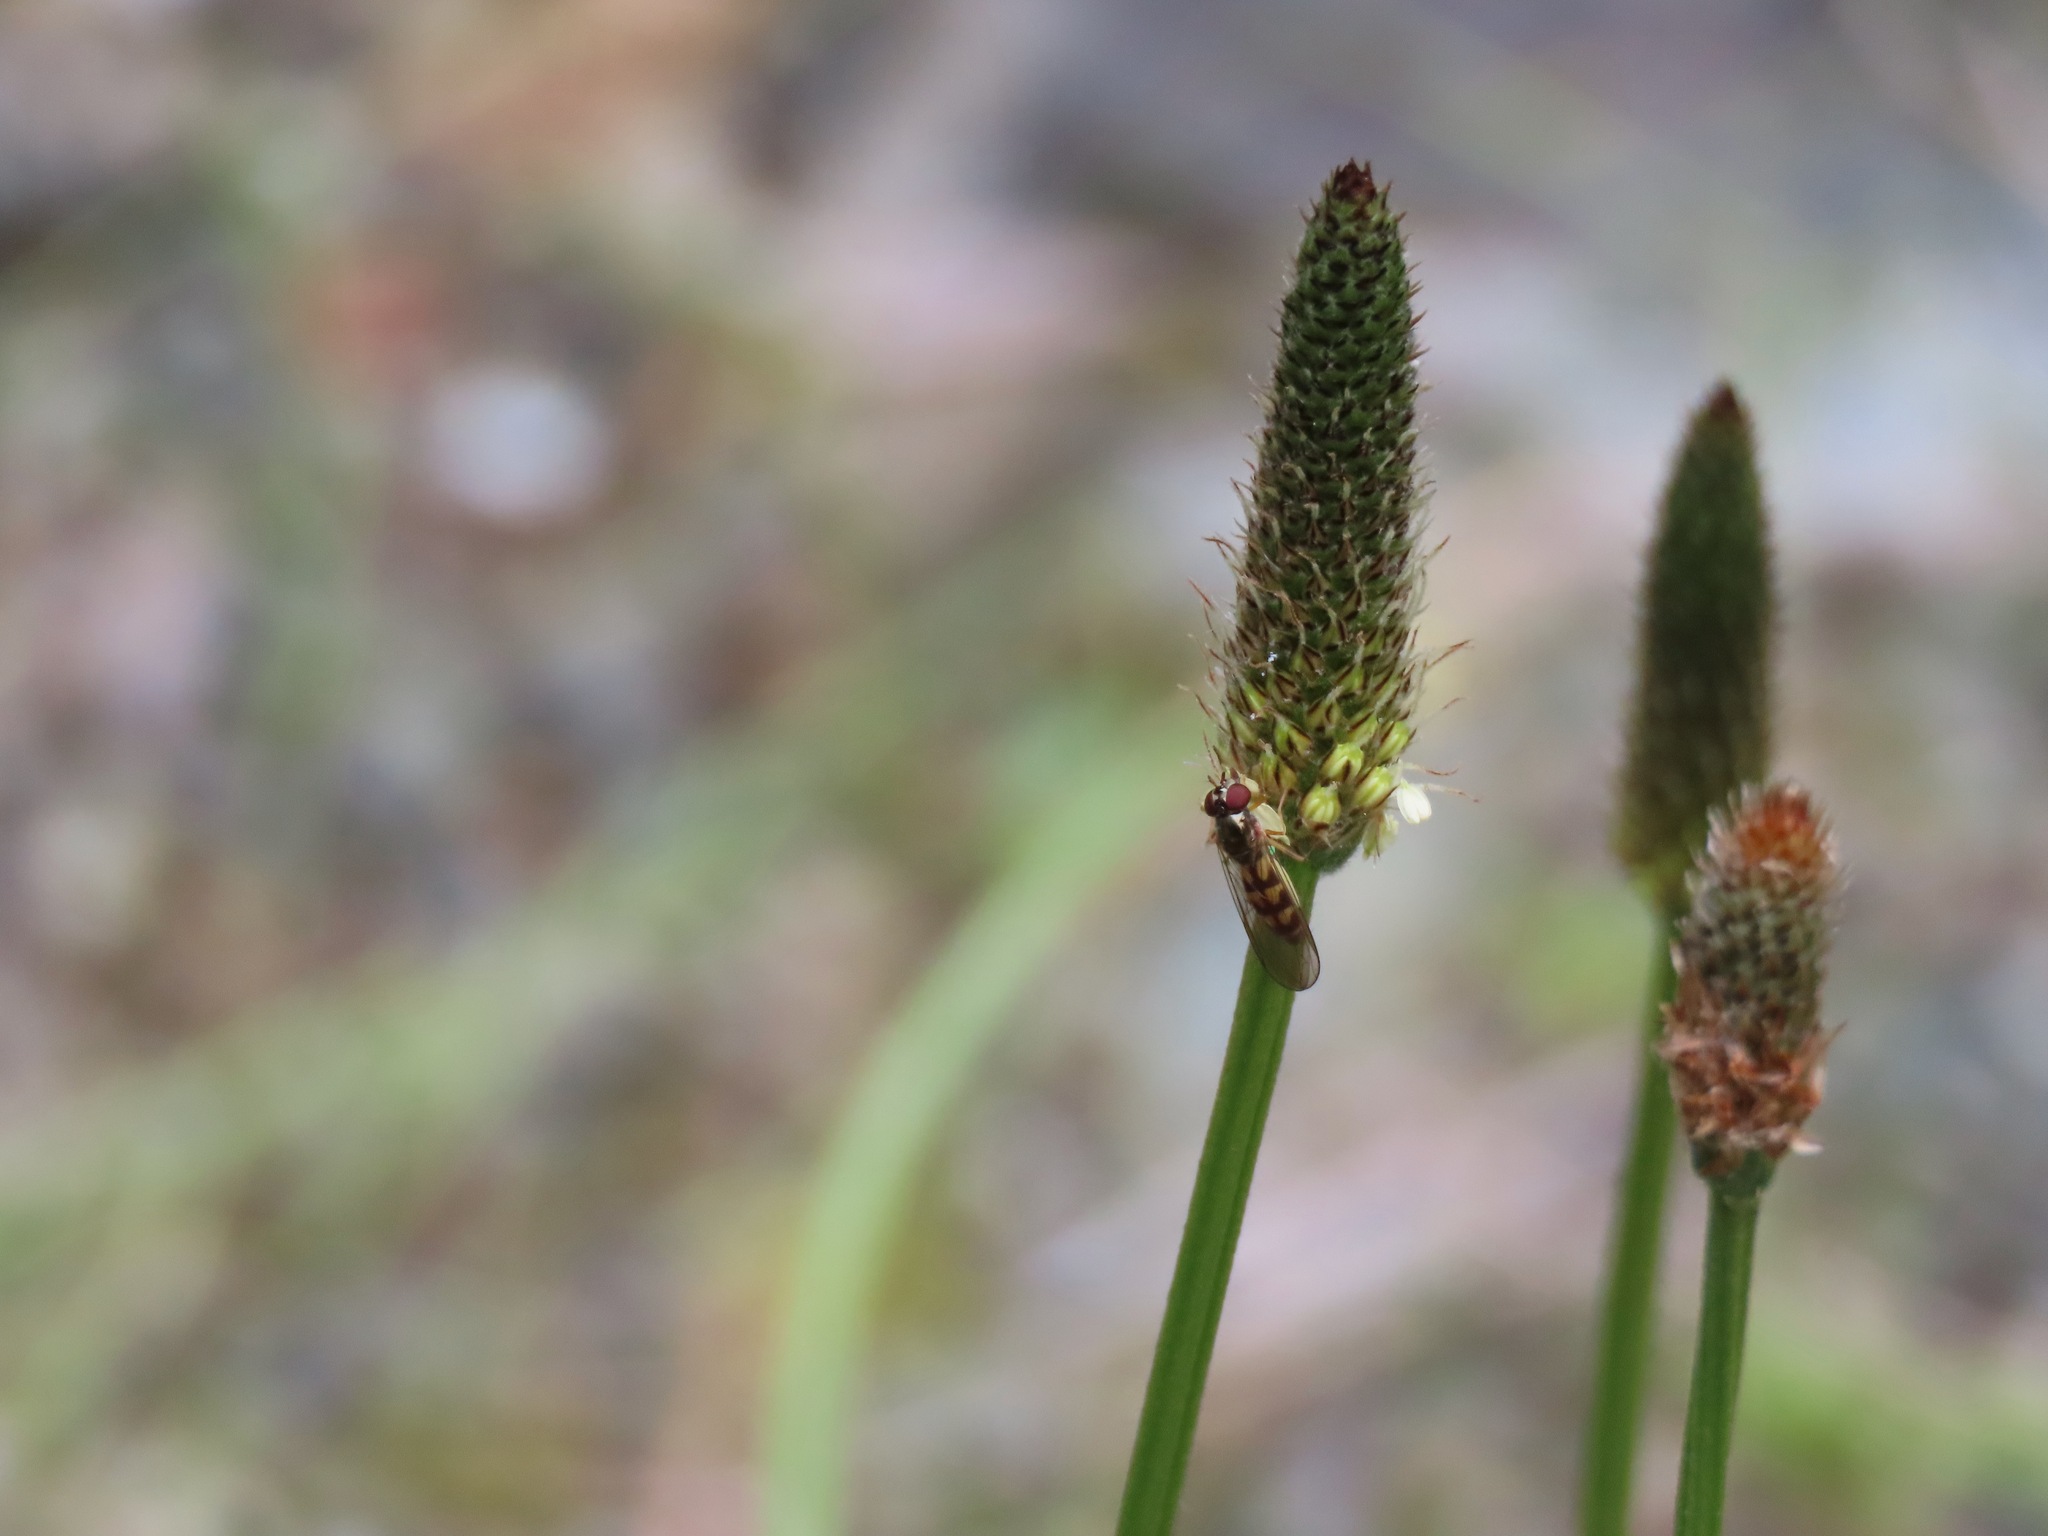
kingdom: Animalia
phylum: Arthropoda
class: Insecta
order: Diptera
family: Syrphidae
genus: Melanostoma
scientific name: Melanostoma mellina
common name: Hover fly
